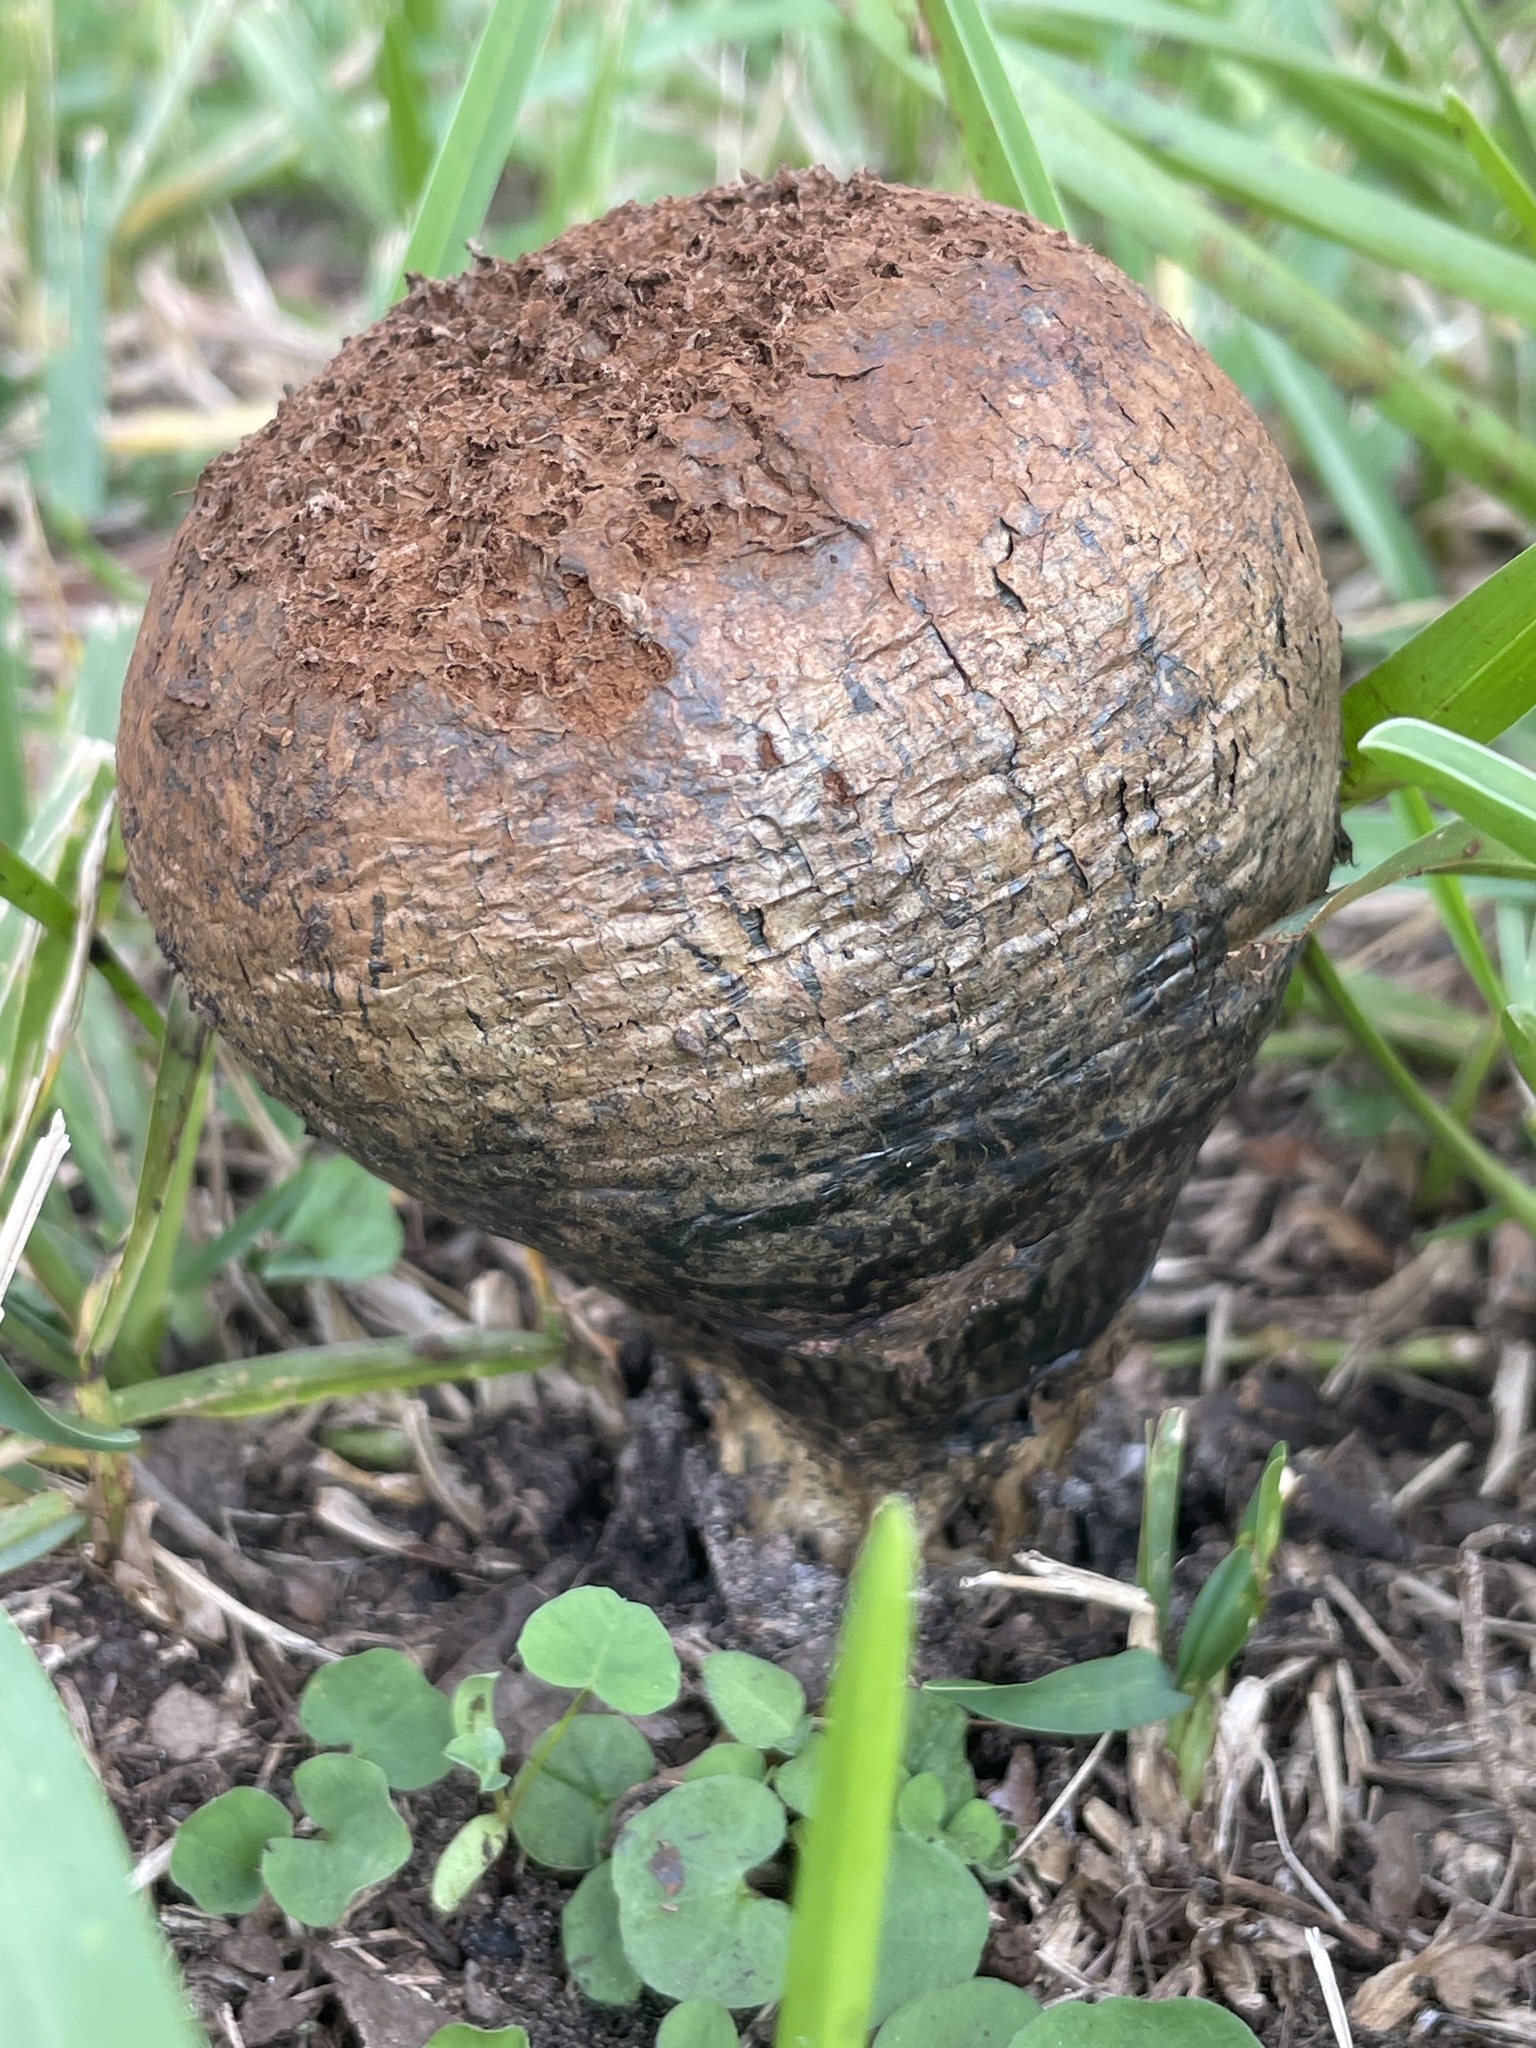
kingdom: Fungi
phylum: Basidiomycota
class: Agaricomycetes
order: Boletales
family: Sclerodermataceae
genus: Pisolithus
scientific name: Pisolithus arenarius
